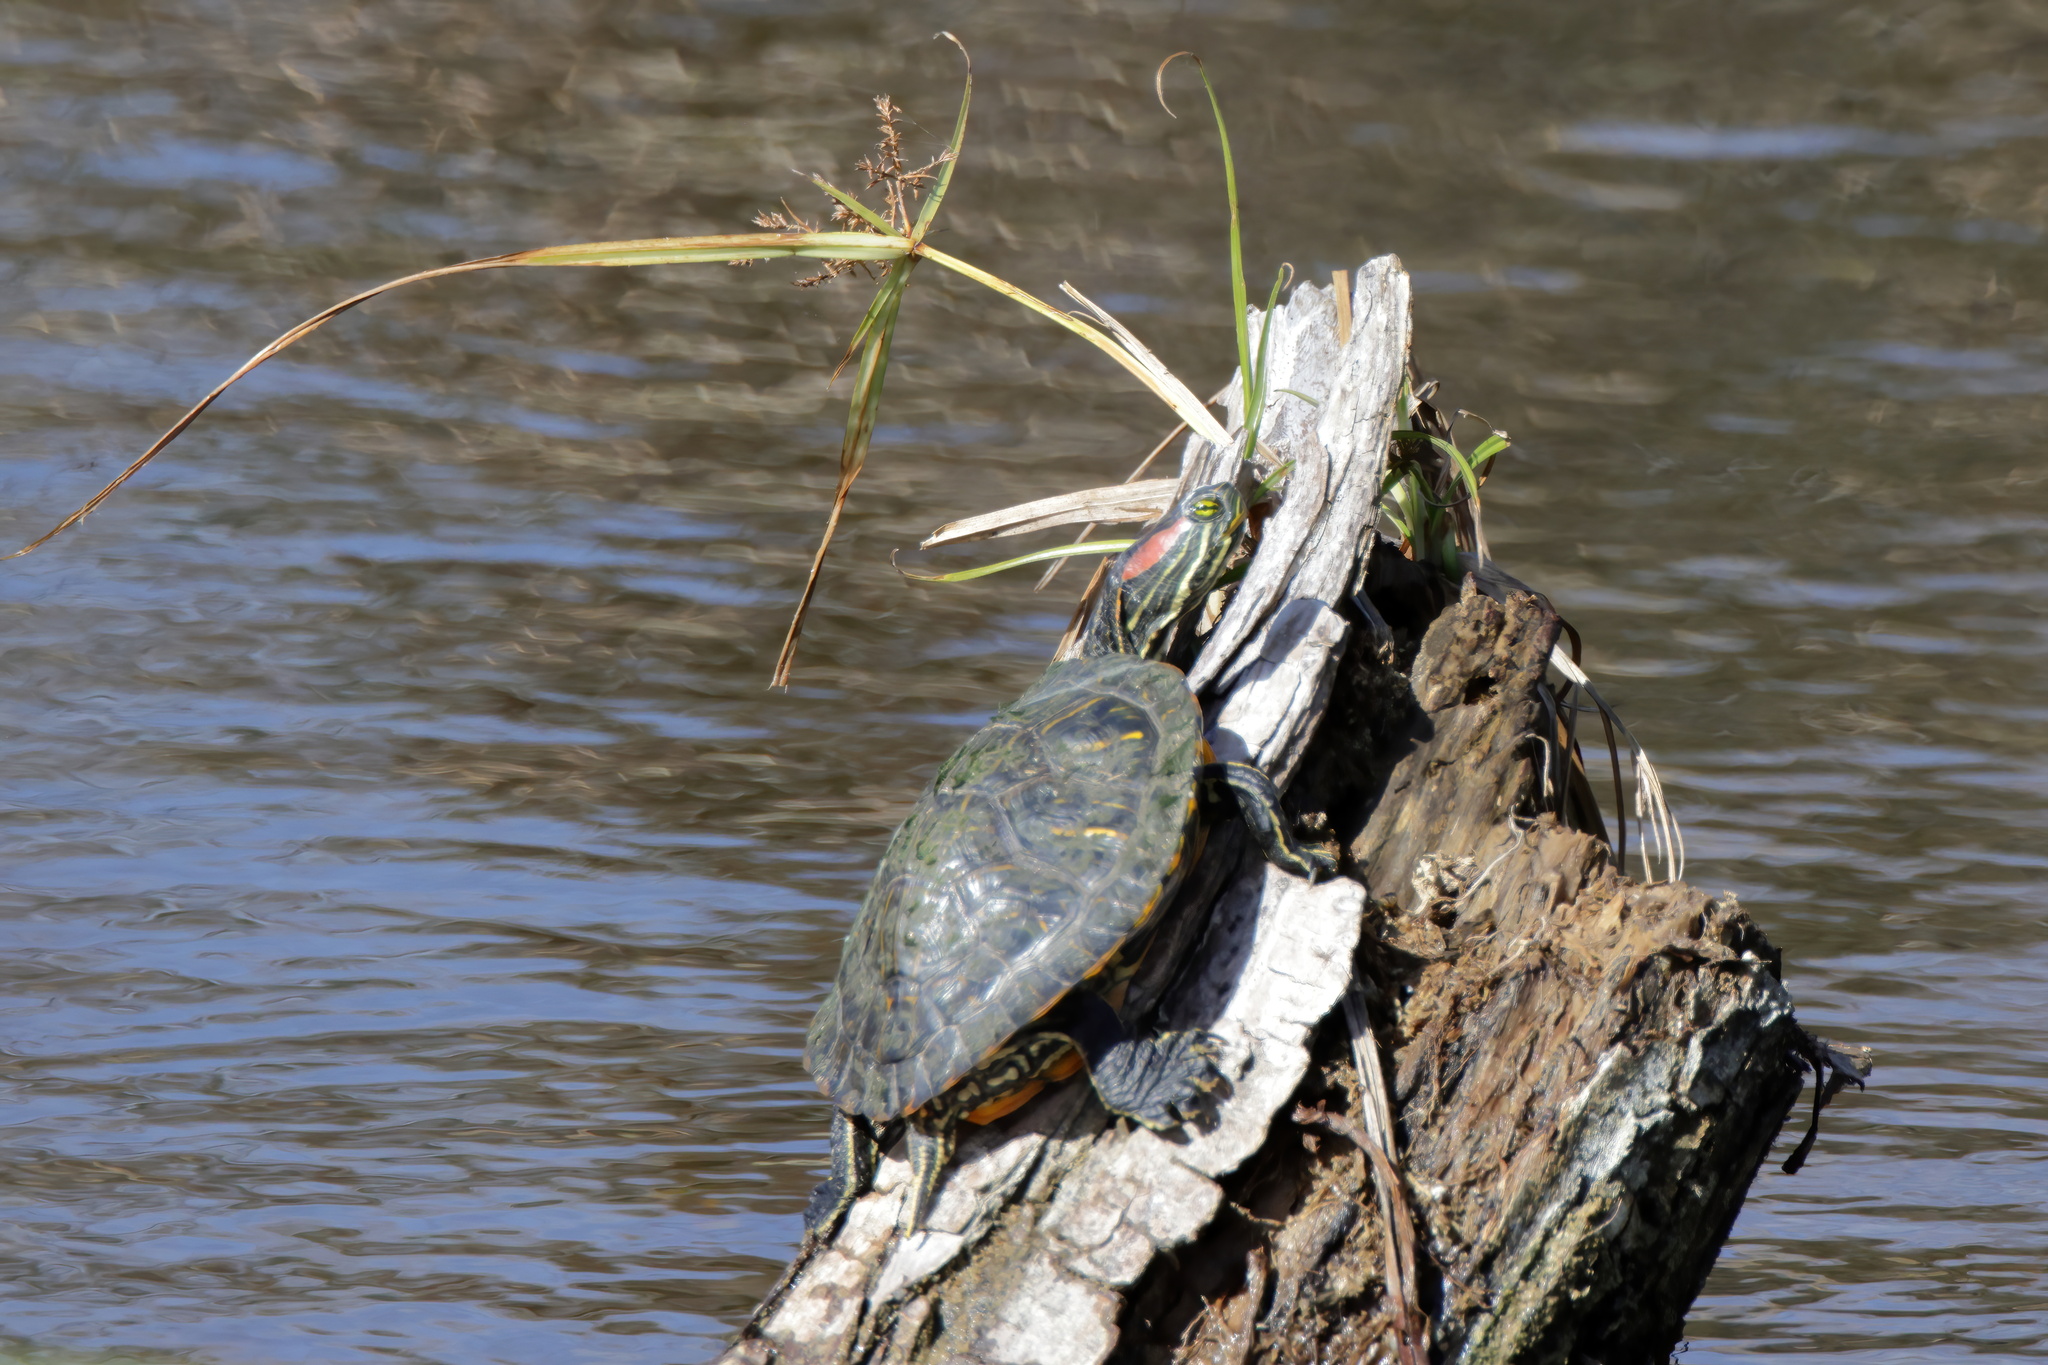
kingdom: Animalia
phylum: Chordata
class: Testudines
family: Emydidae
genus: Trachemys
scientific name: Trachemys scripta
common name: Slider
